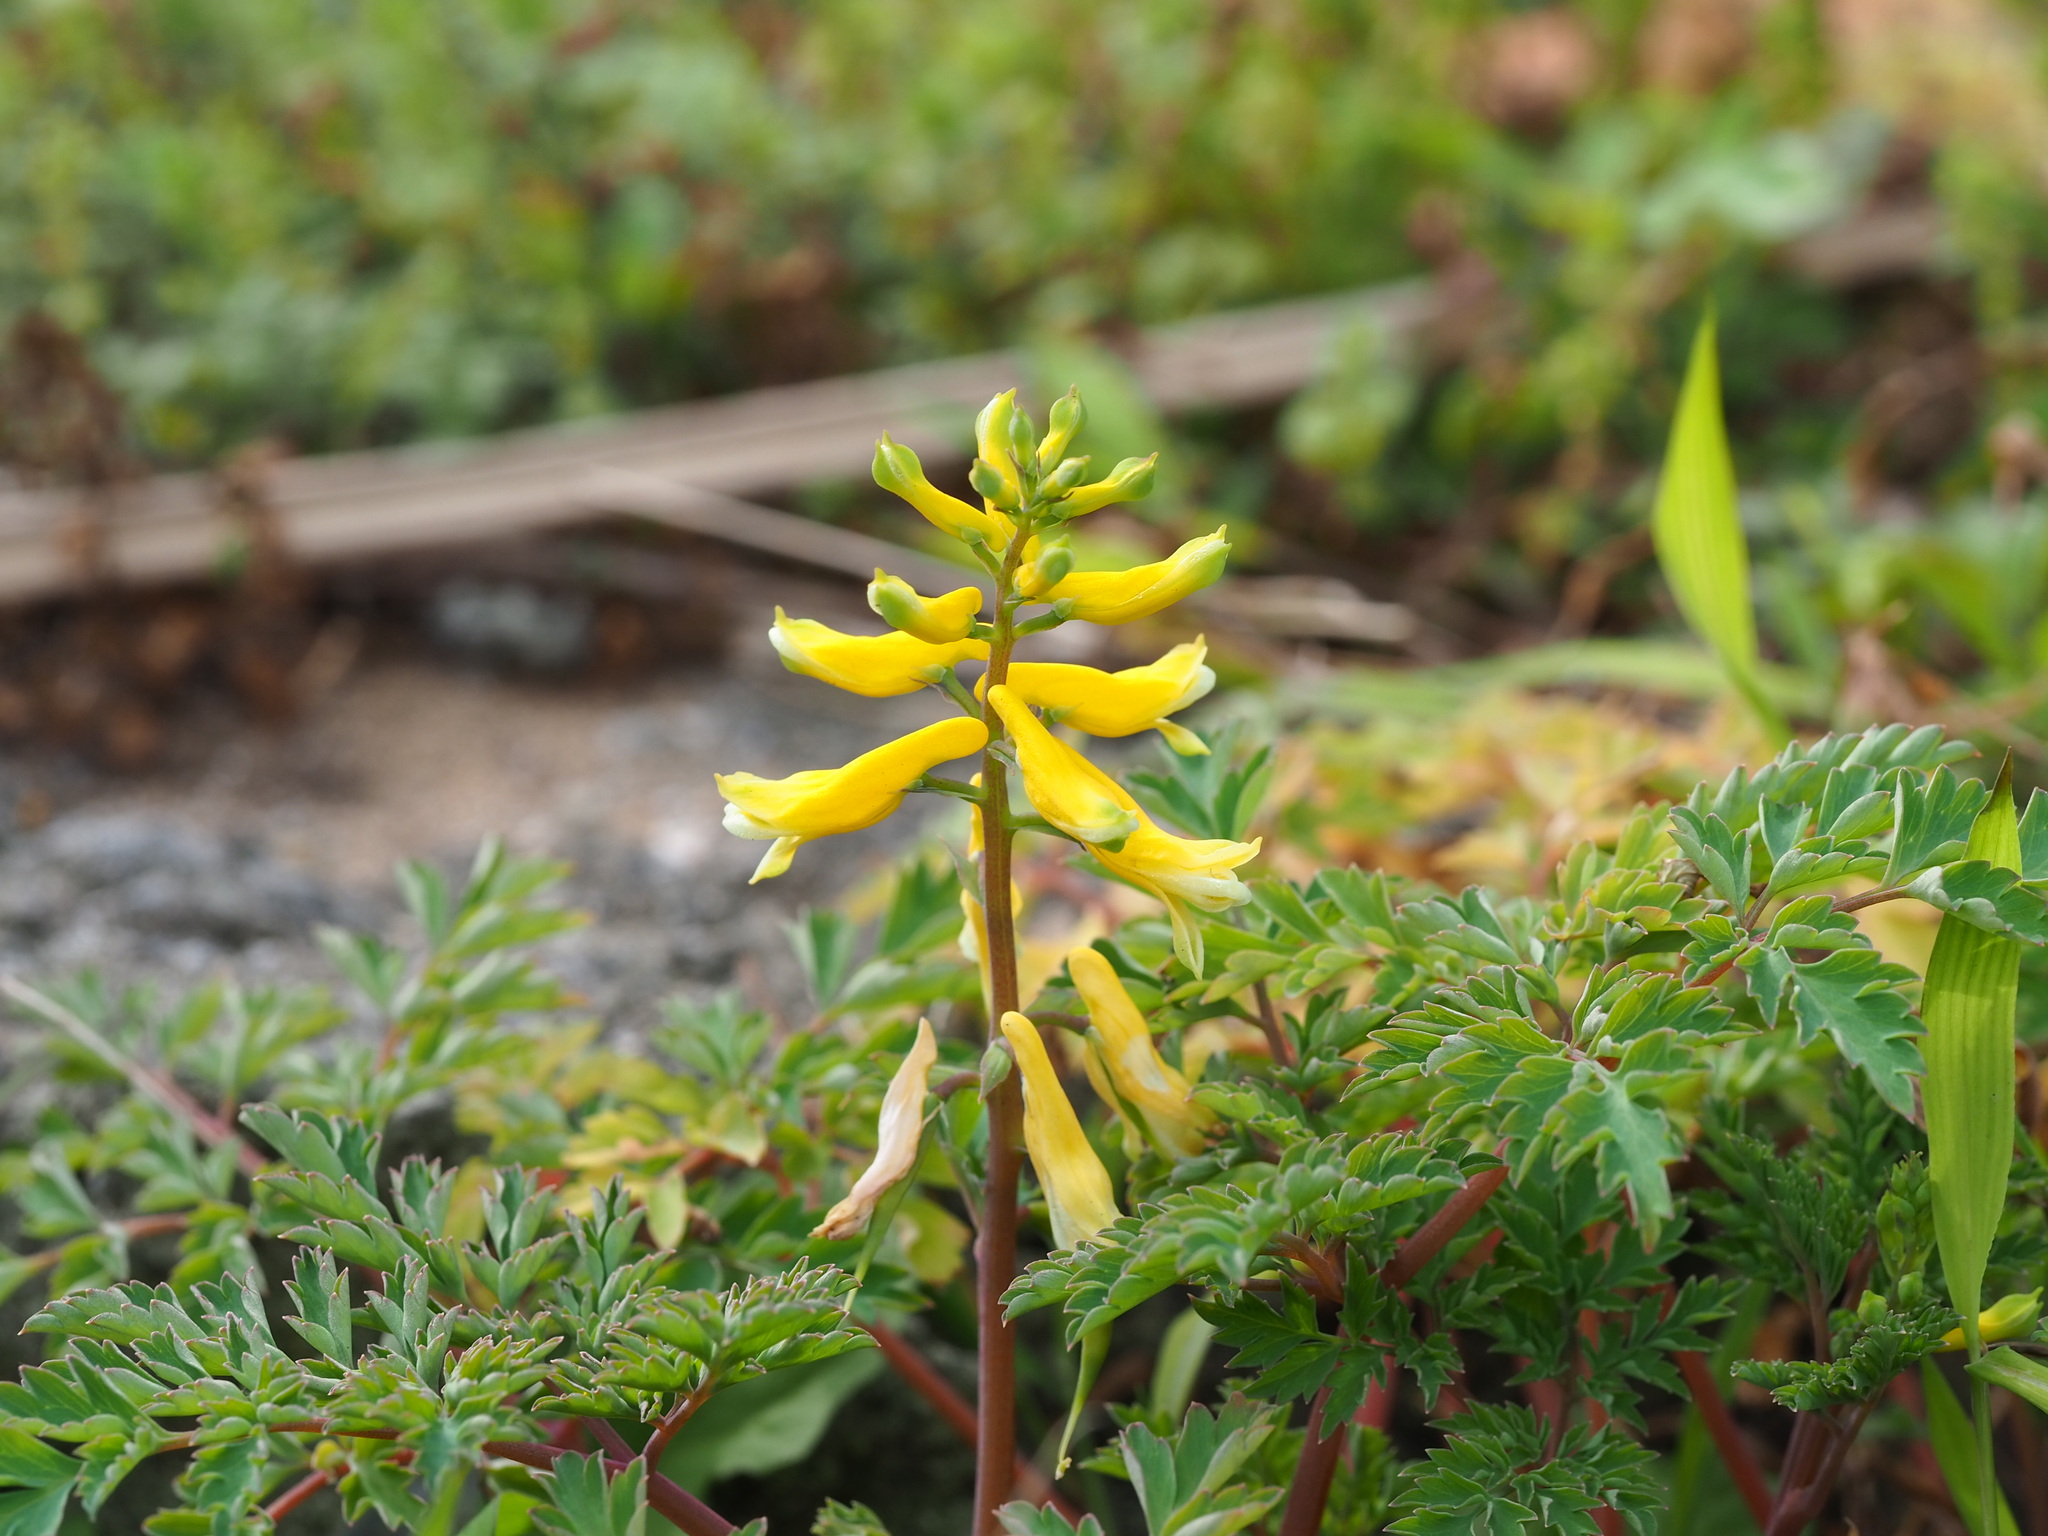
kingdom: Plantae
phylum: Tracheophyta
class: Magnoliopsida
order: Ranunculales
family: Papaveraceae
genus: Corydalis
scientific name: Corydalis balansae
